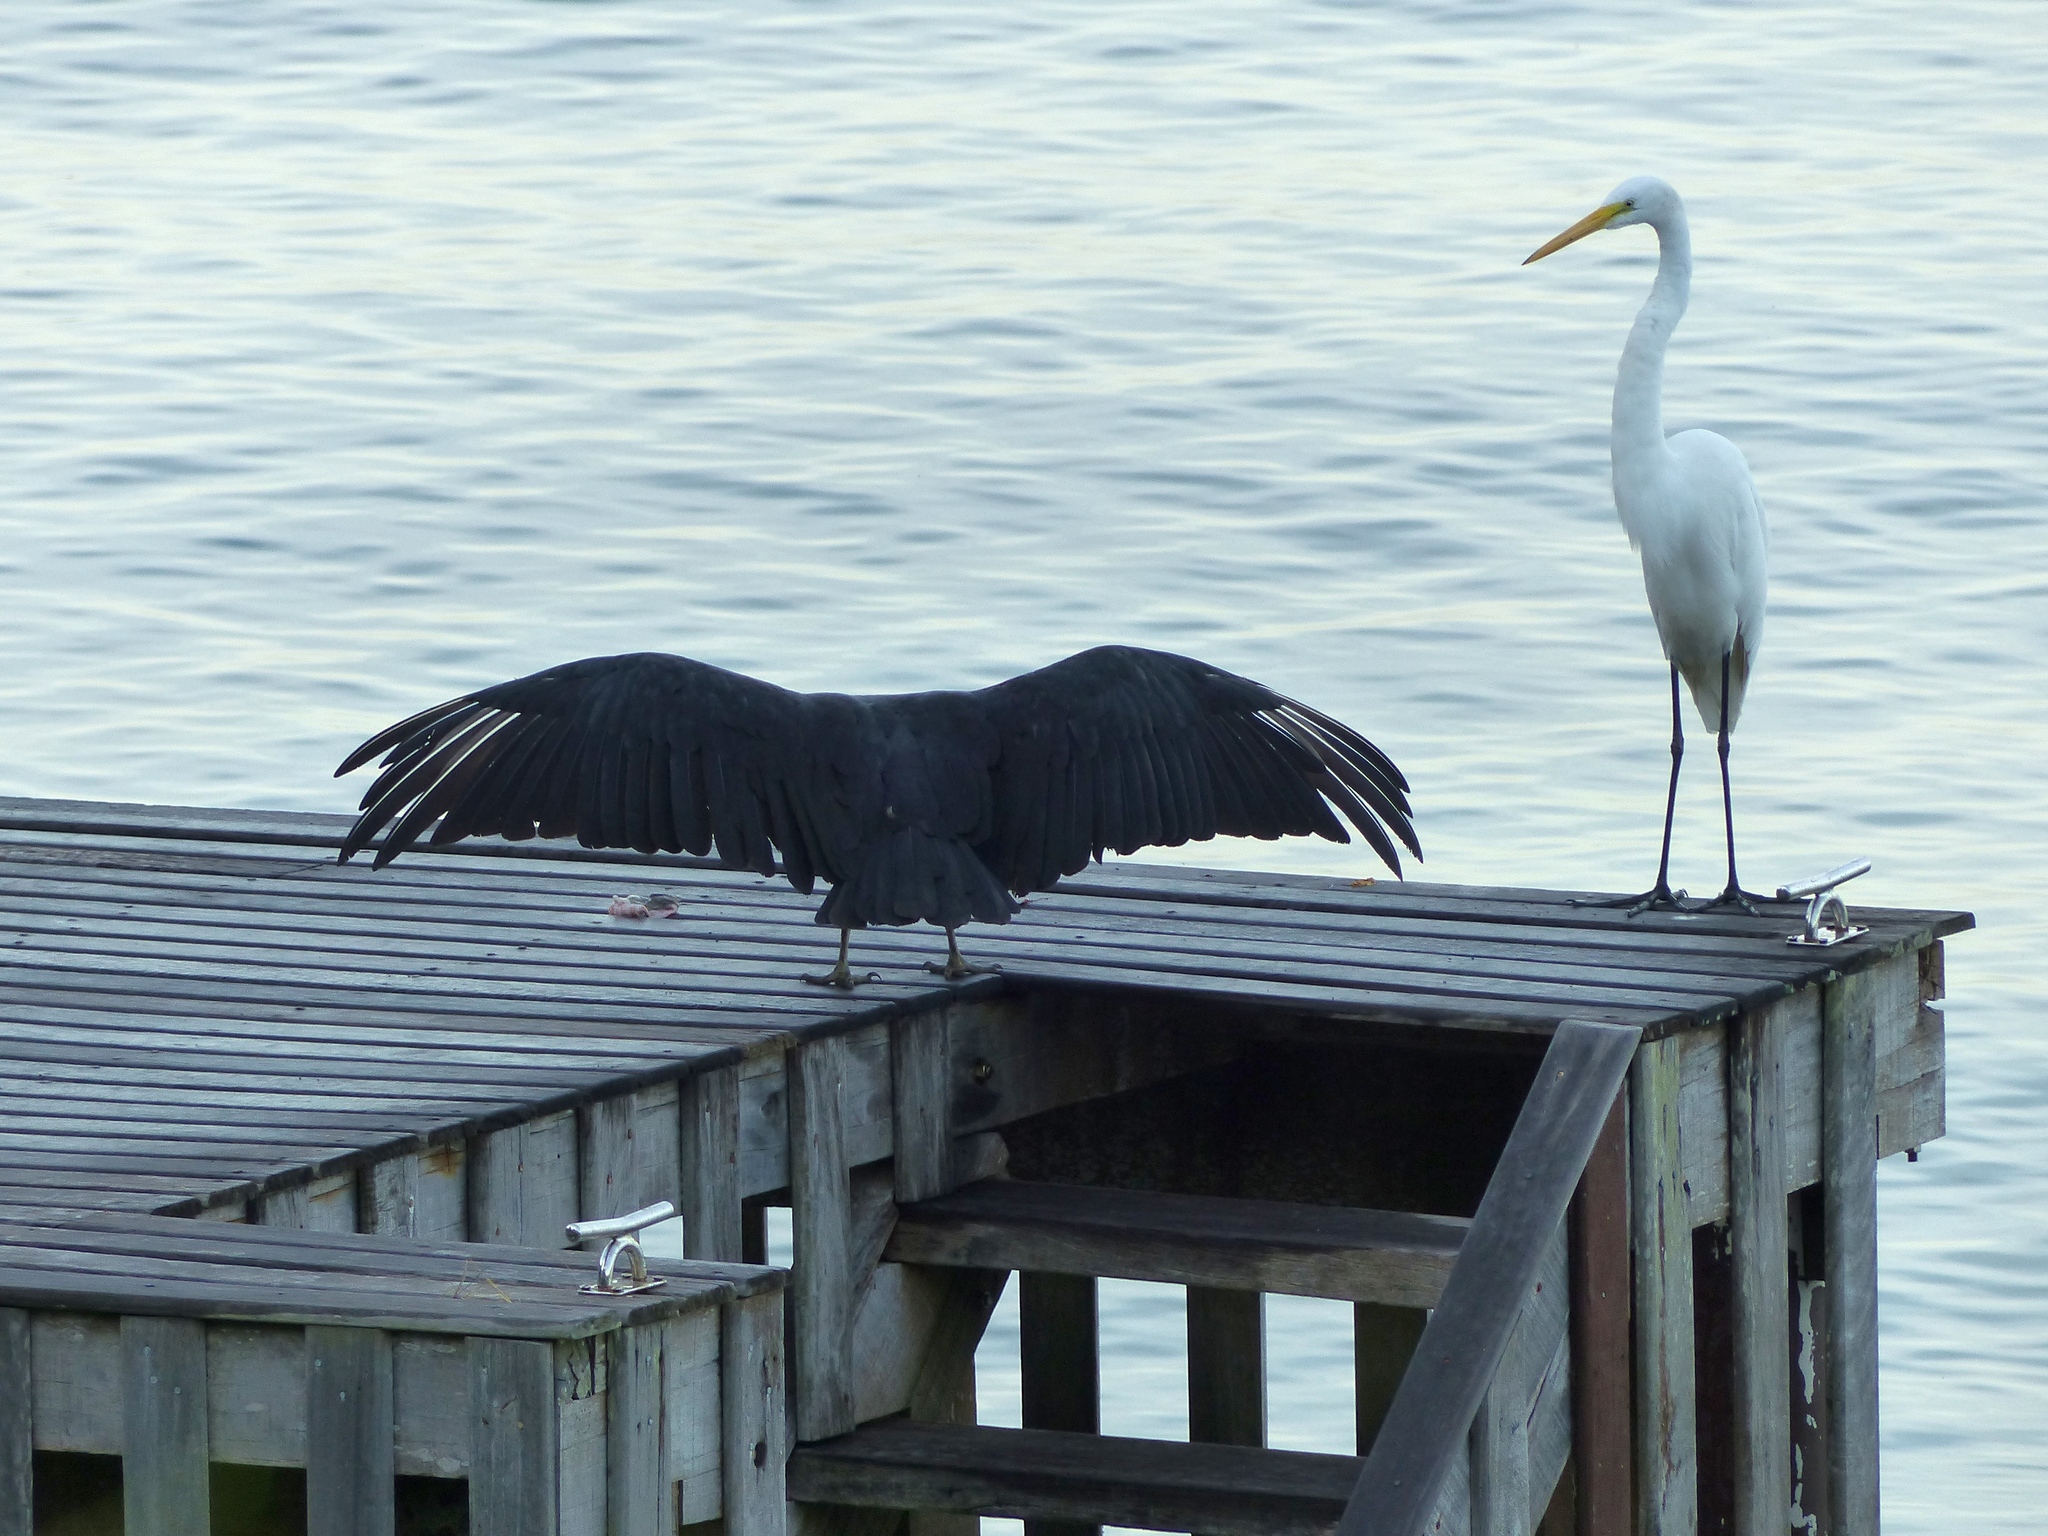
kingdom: Animalia
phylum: Chordata
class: Aves
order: Pelecaniformes
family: Ardeidae
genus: Ardea
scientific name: Ardea alba
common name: Great egret
